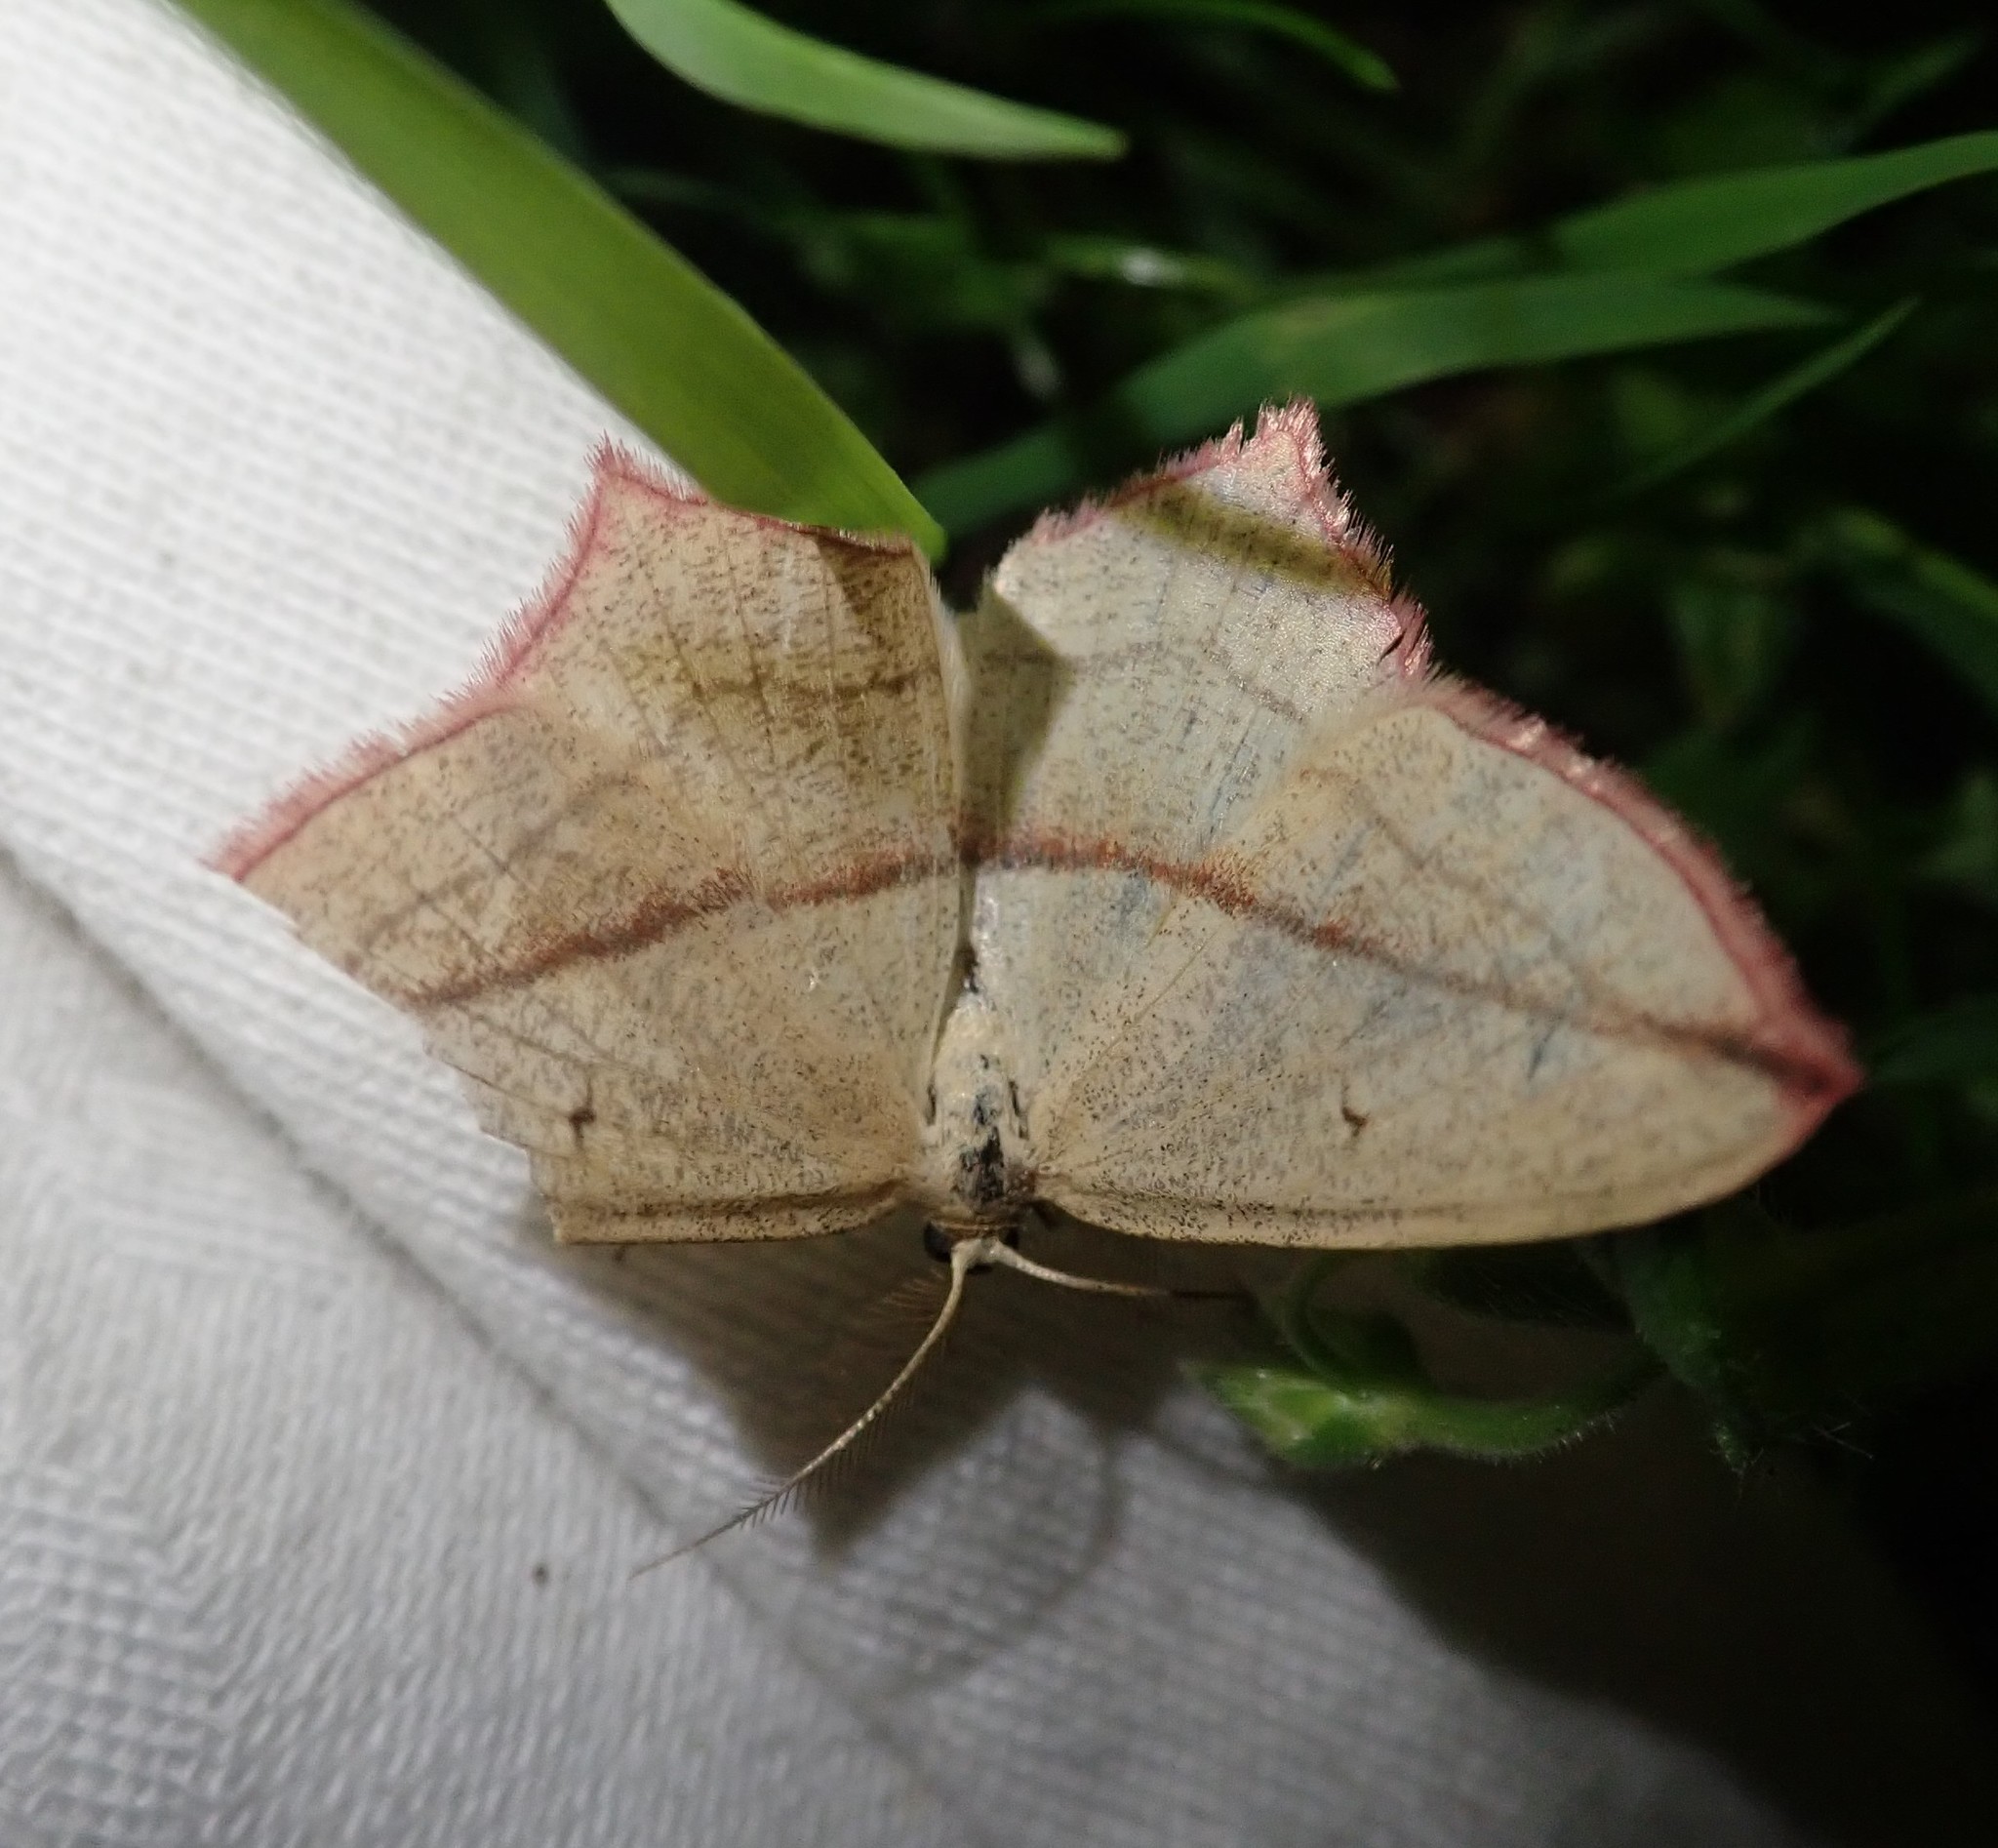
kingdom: Animalia
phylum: Arthropoda
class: Insecta
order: Lepidoptera
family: Geometridae
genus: Timandra
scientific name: Timandra comae
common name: Blood-vein
